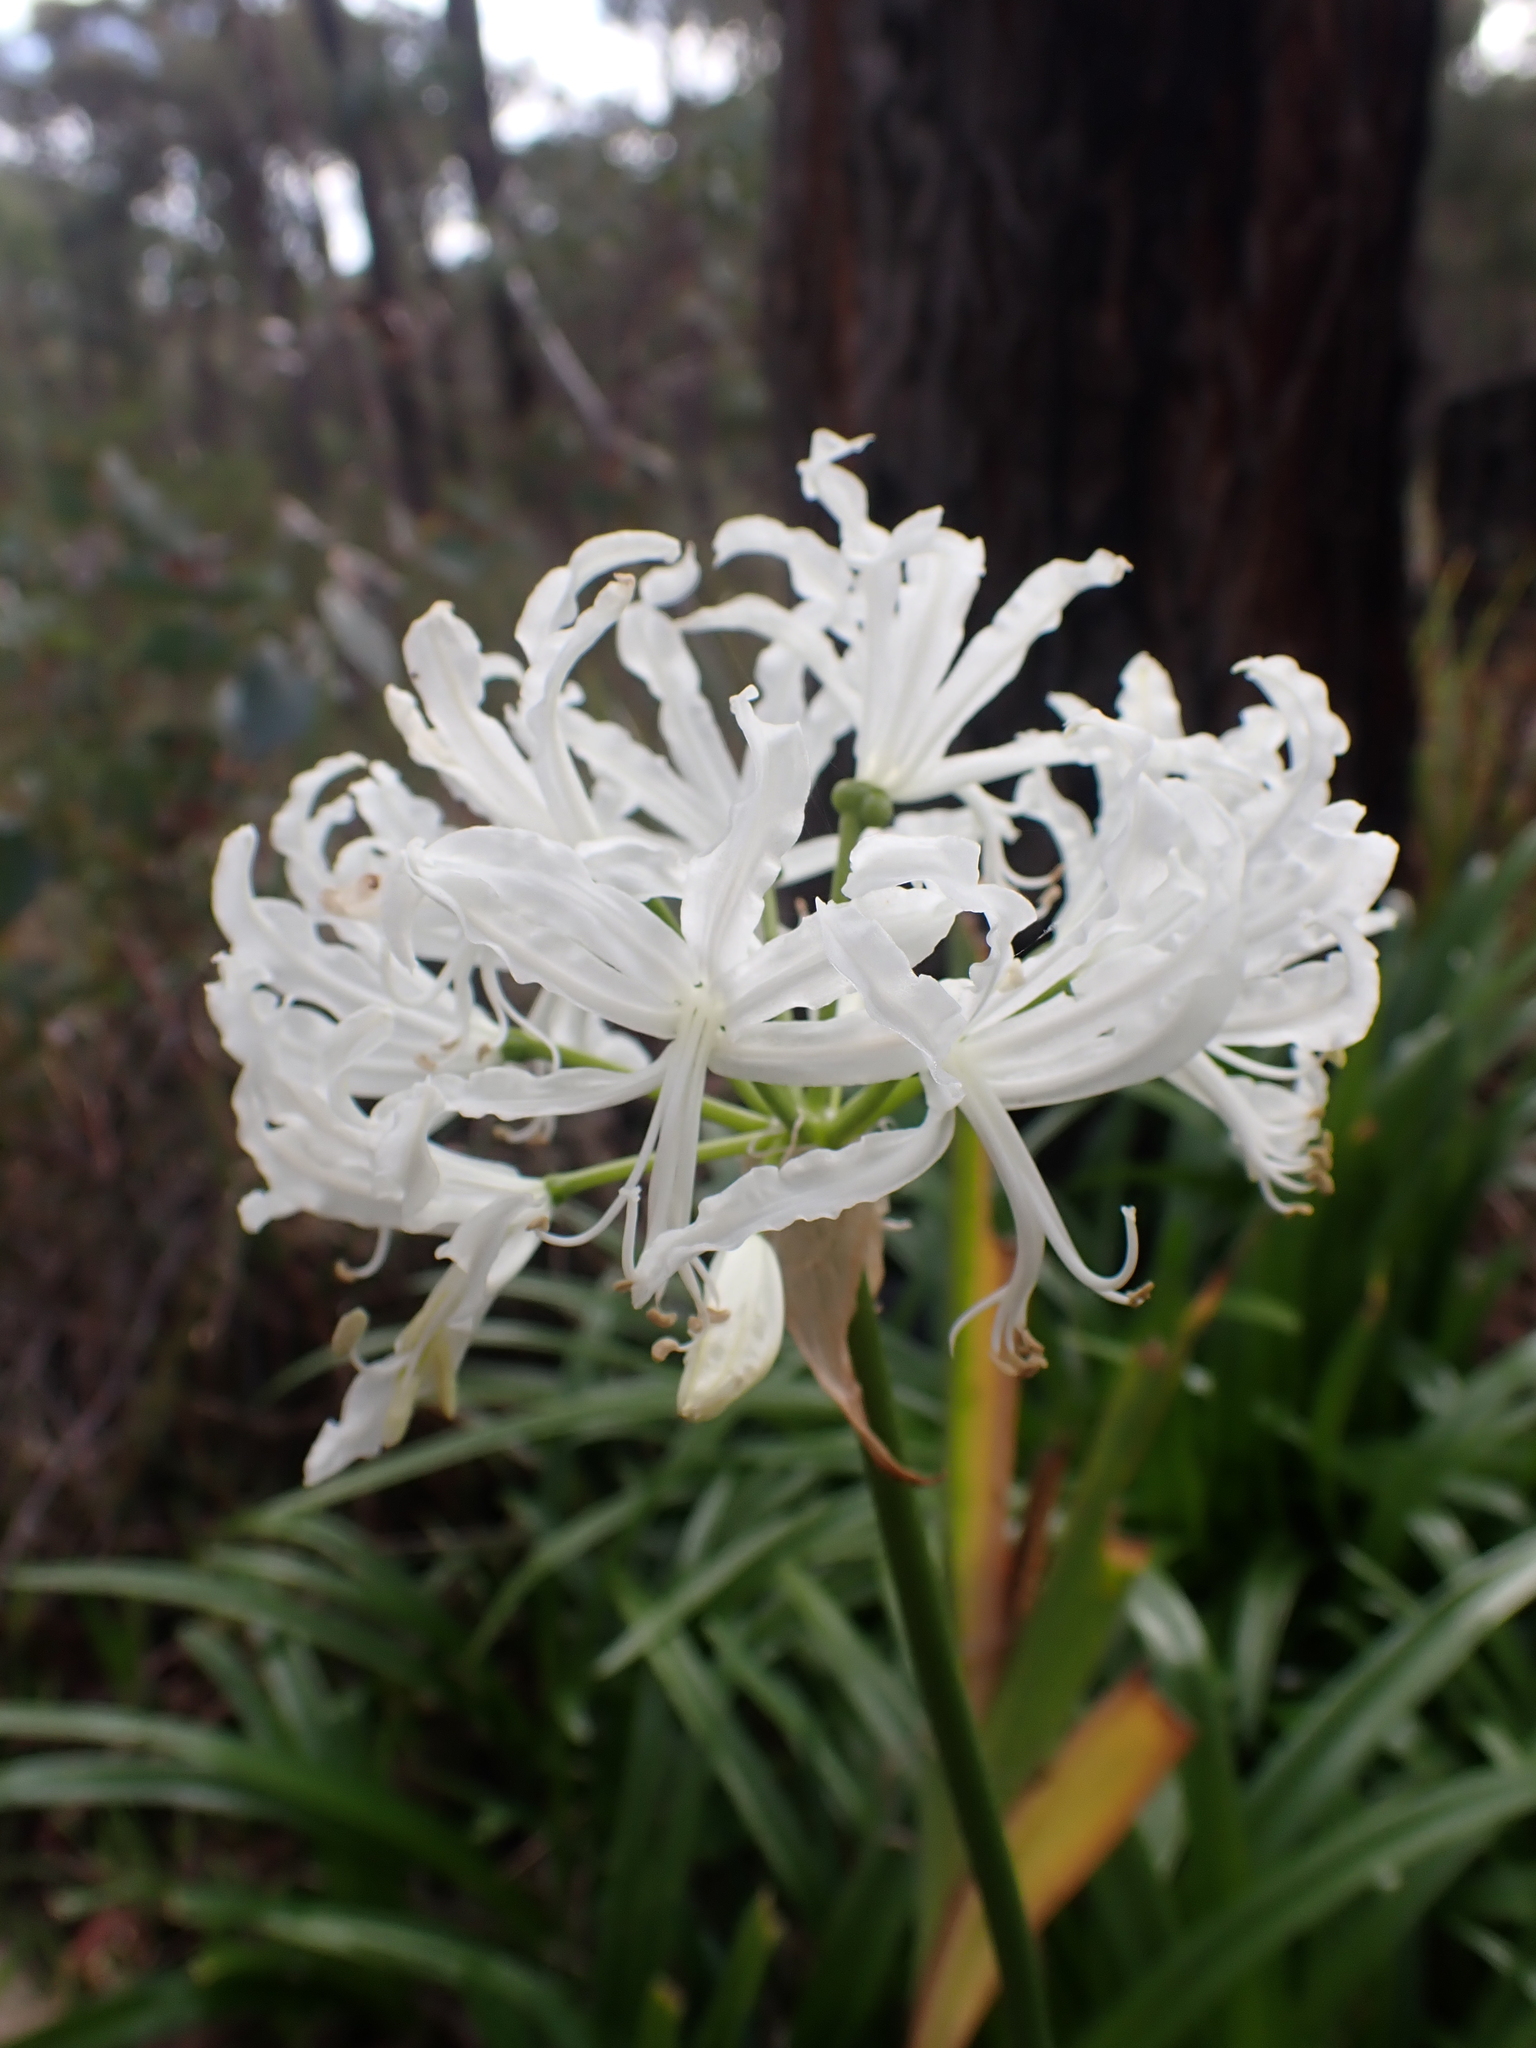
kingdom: Plantae
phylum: Tracheophyta
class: Liliopsida
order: Asparagales
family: Amaryllidaceae
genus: Nerine
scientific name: Nerine undulata
